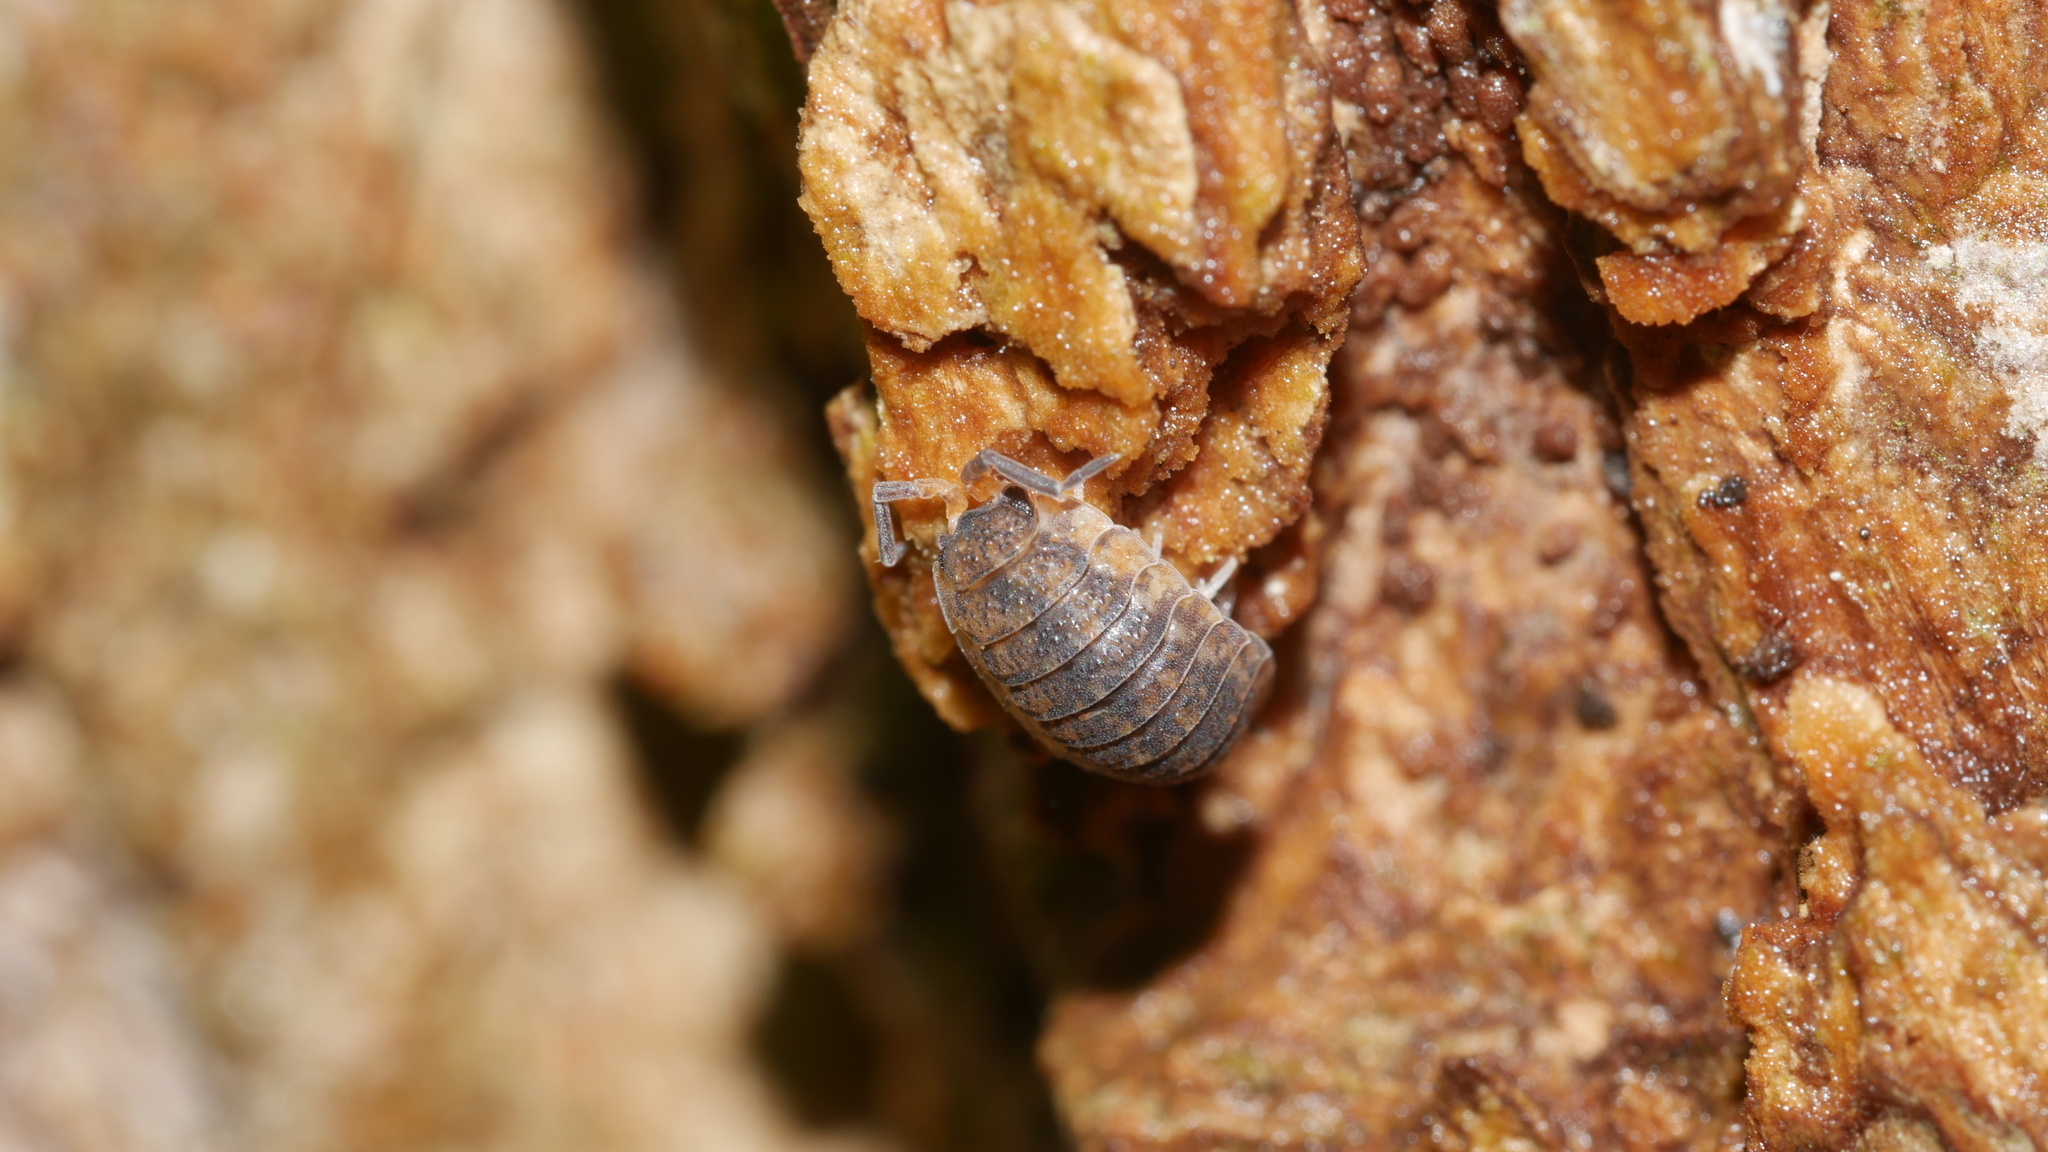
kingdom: Animalia
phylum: Arthropoda
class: Malacostraca
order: Isopoda
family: Porcellionidae
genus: Porcellio
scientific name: Porcellio scaber
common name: Common rough woodlouse
